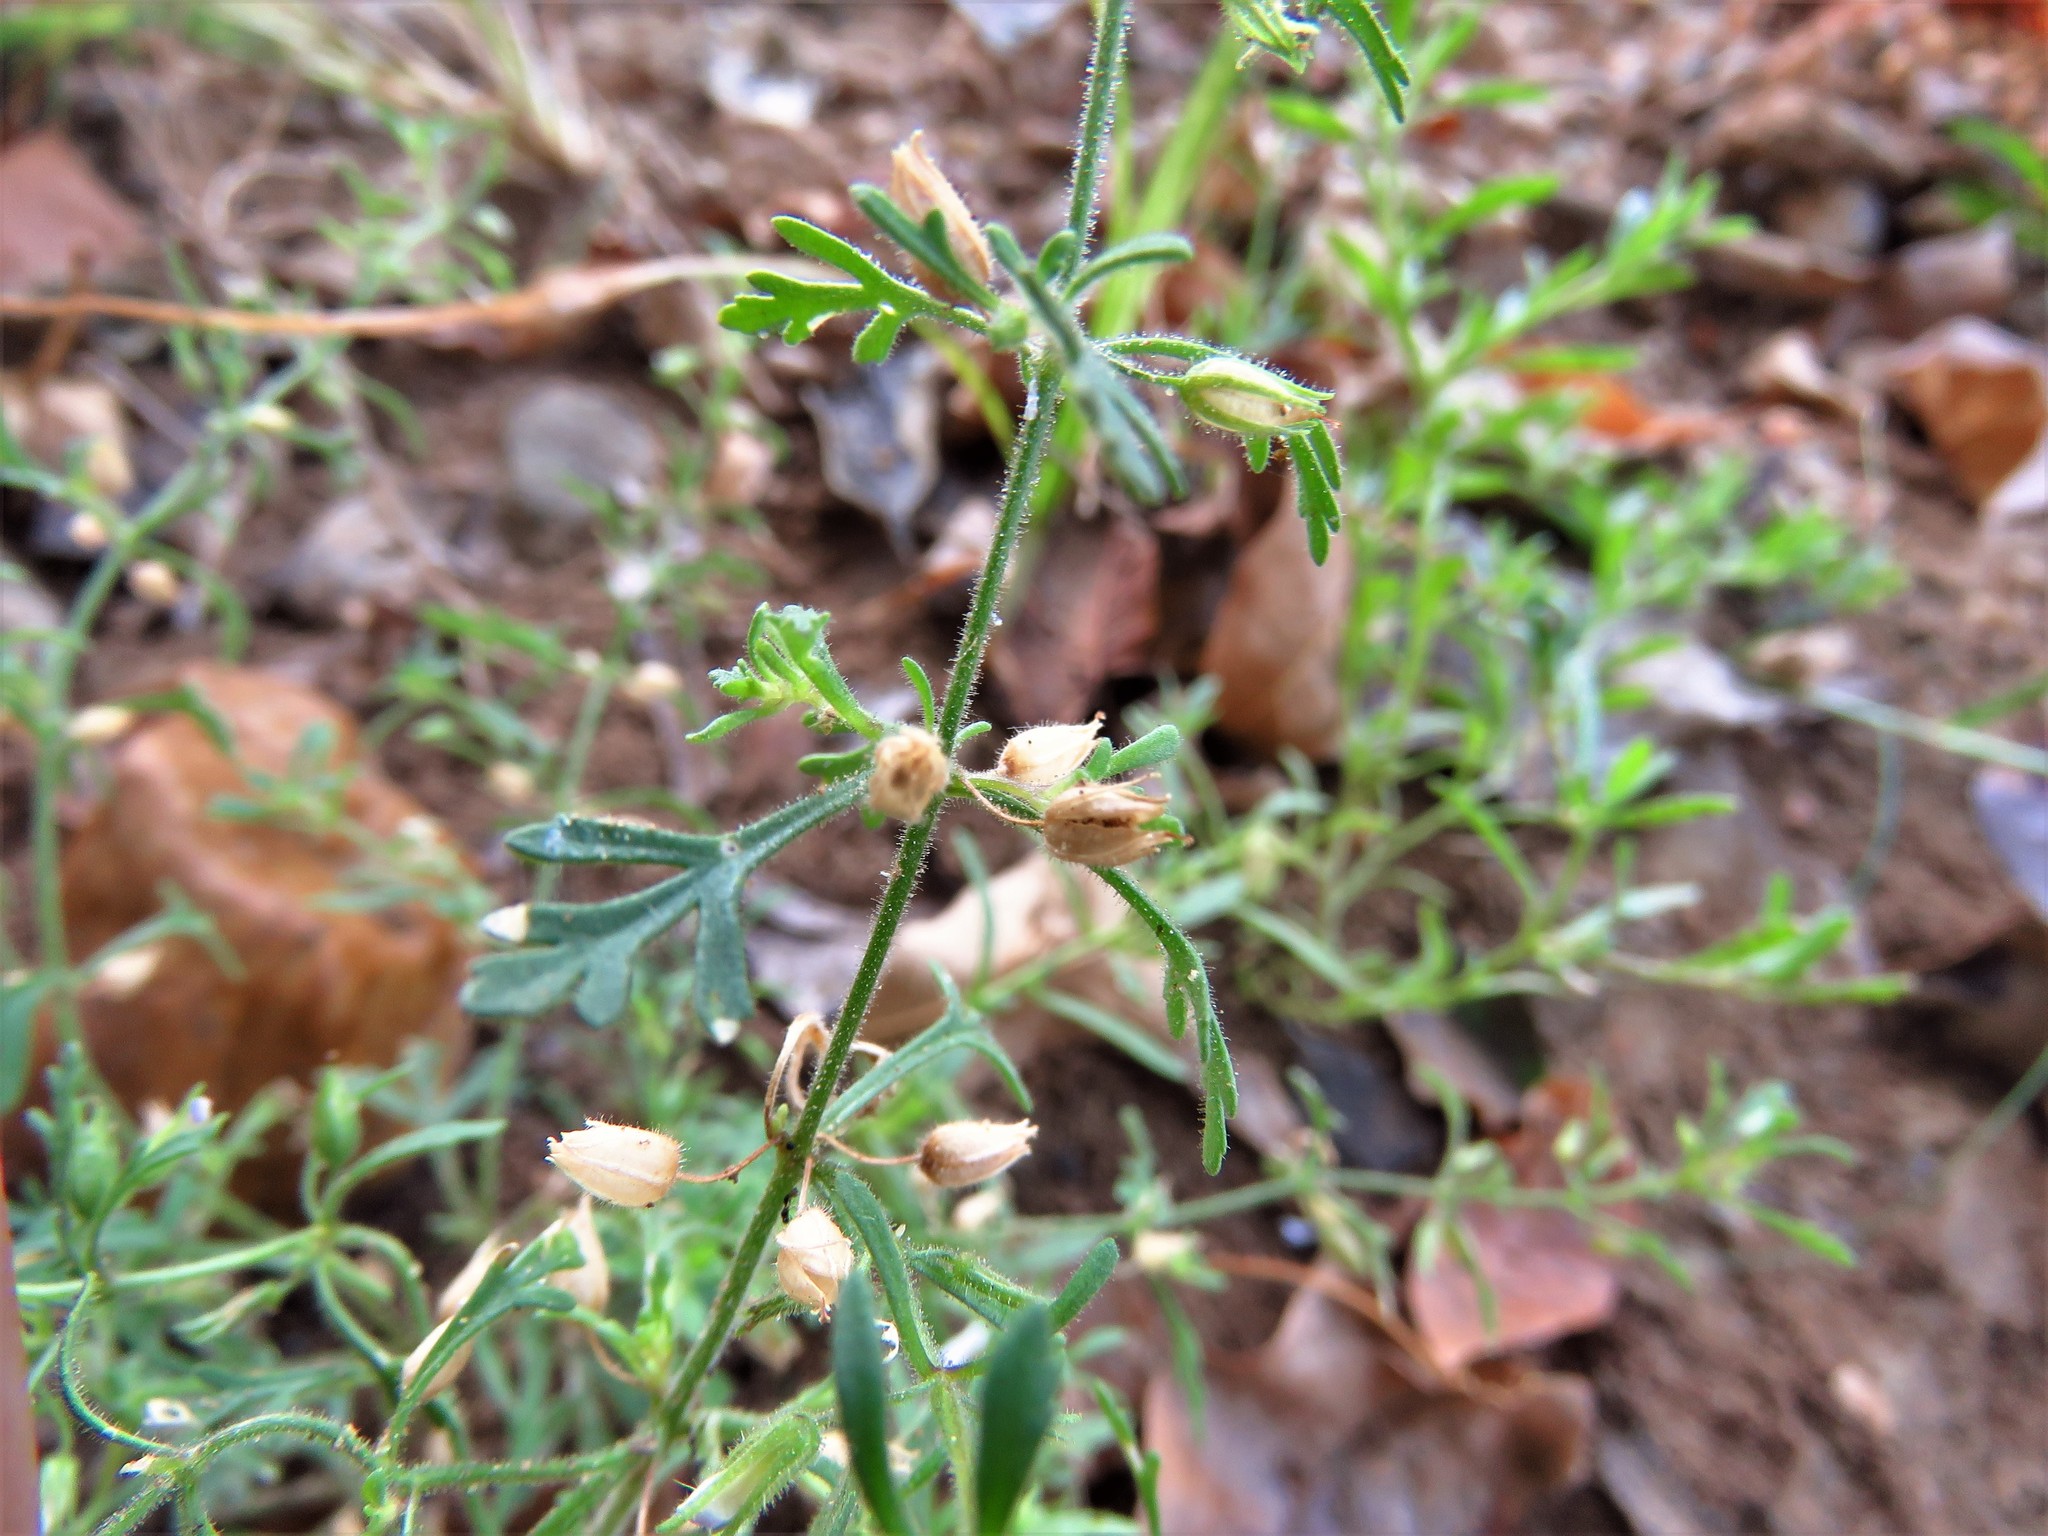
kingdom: Plantae
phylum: Tracheophyta
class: Magnoliopsida
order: Lamiales
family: Plantaginaceae
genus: Leucospora
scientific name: Leucospora multifida
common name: Narrow-leaf paleseed
